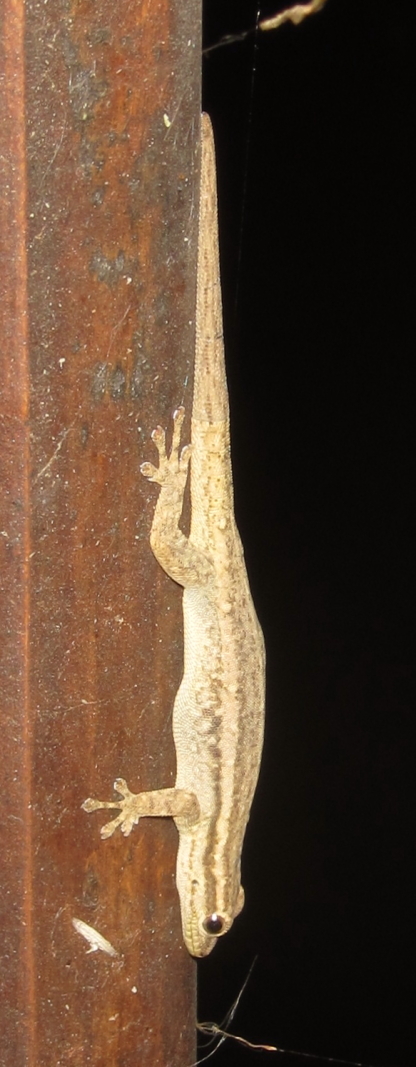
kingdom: Animalia
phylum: Chordata
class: Squamata
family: Gekkonidae
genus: Lygodactylus
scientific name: Lygodactylus capensis
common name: Cape dwarf gecko
